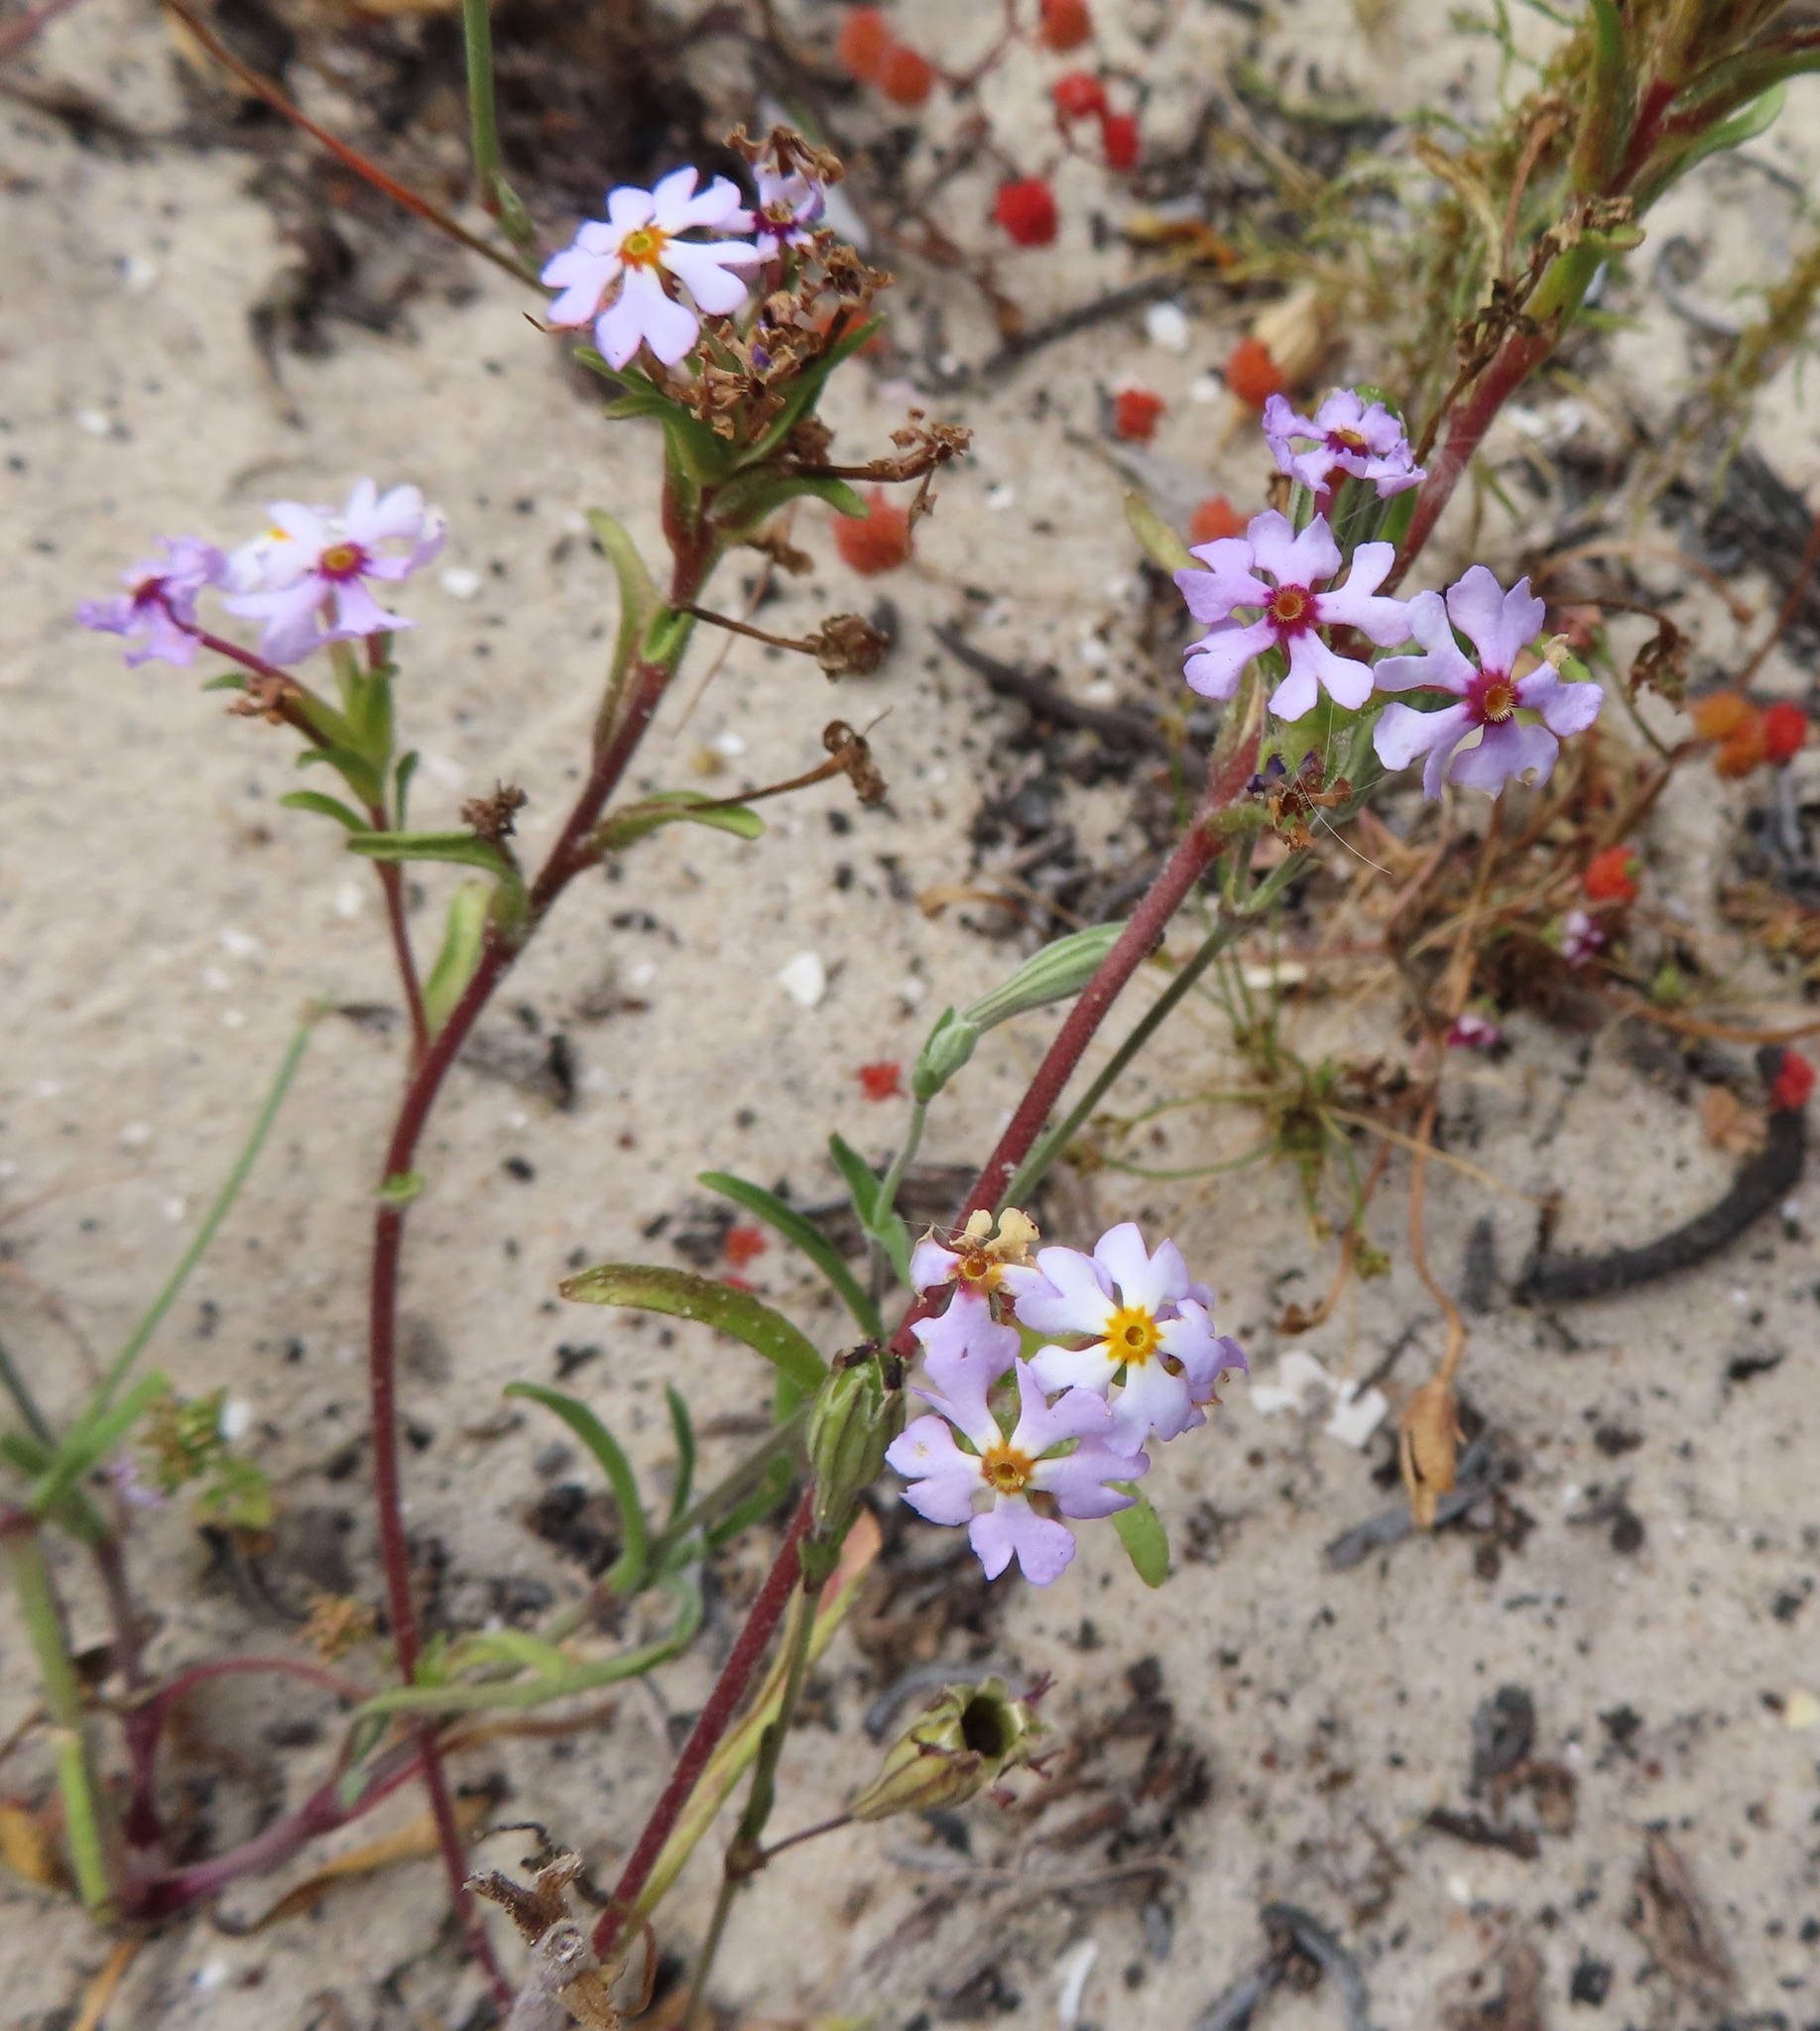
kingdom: Plantae
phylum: Tracheophyta
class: Magnoliopsida
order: Lamiales
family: Scrophulariaceae
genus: Zaluzianskya
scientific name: Zaluzianskya affinis
